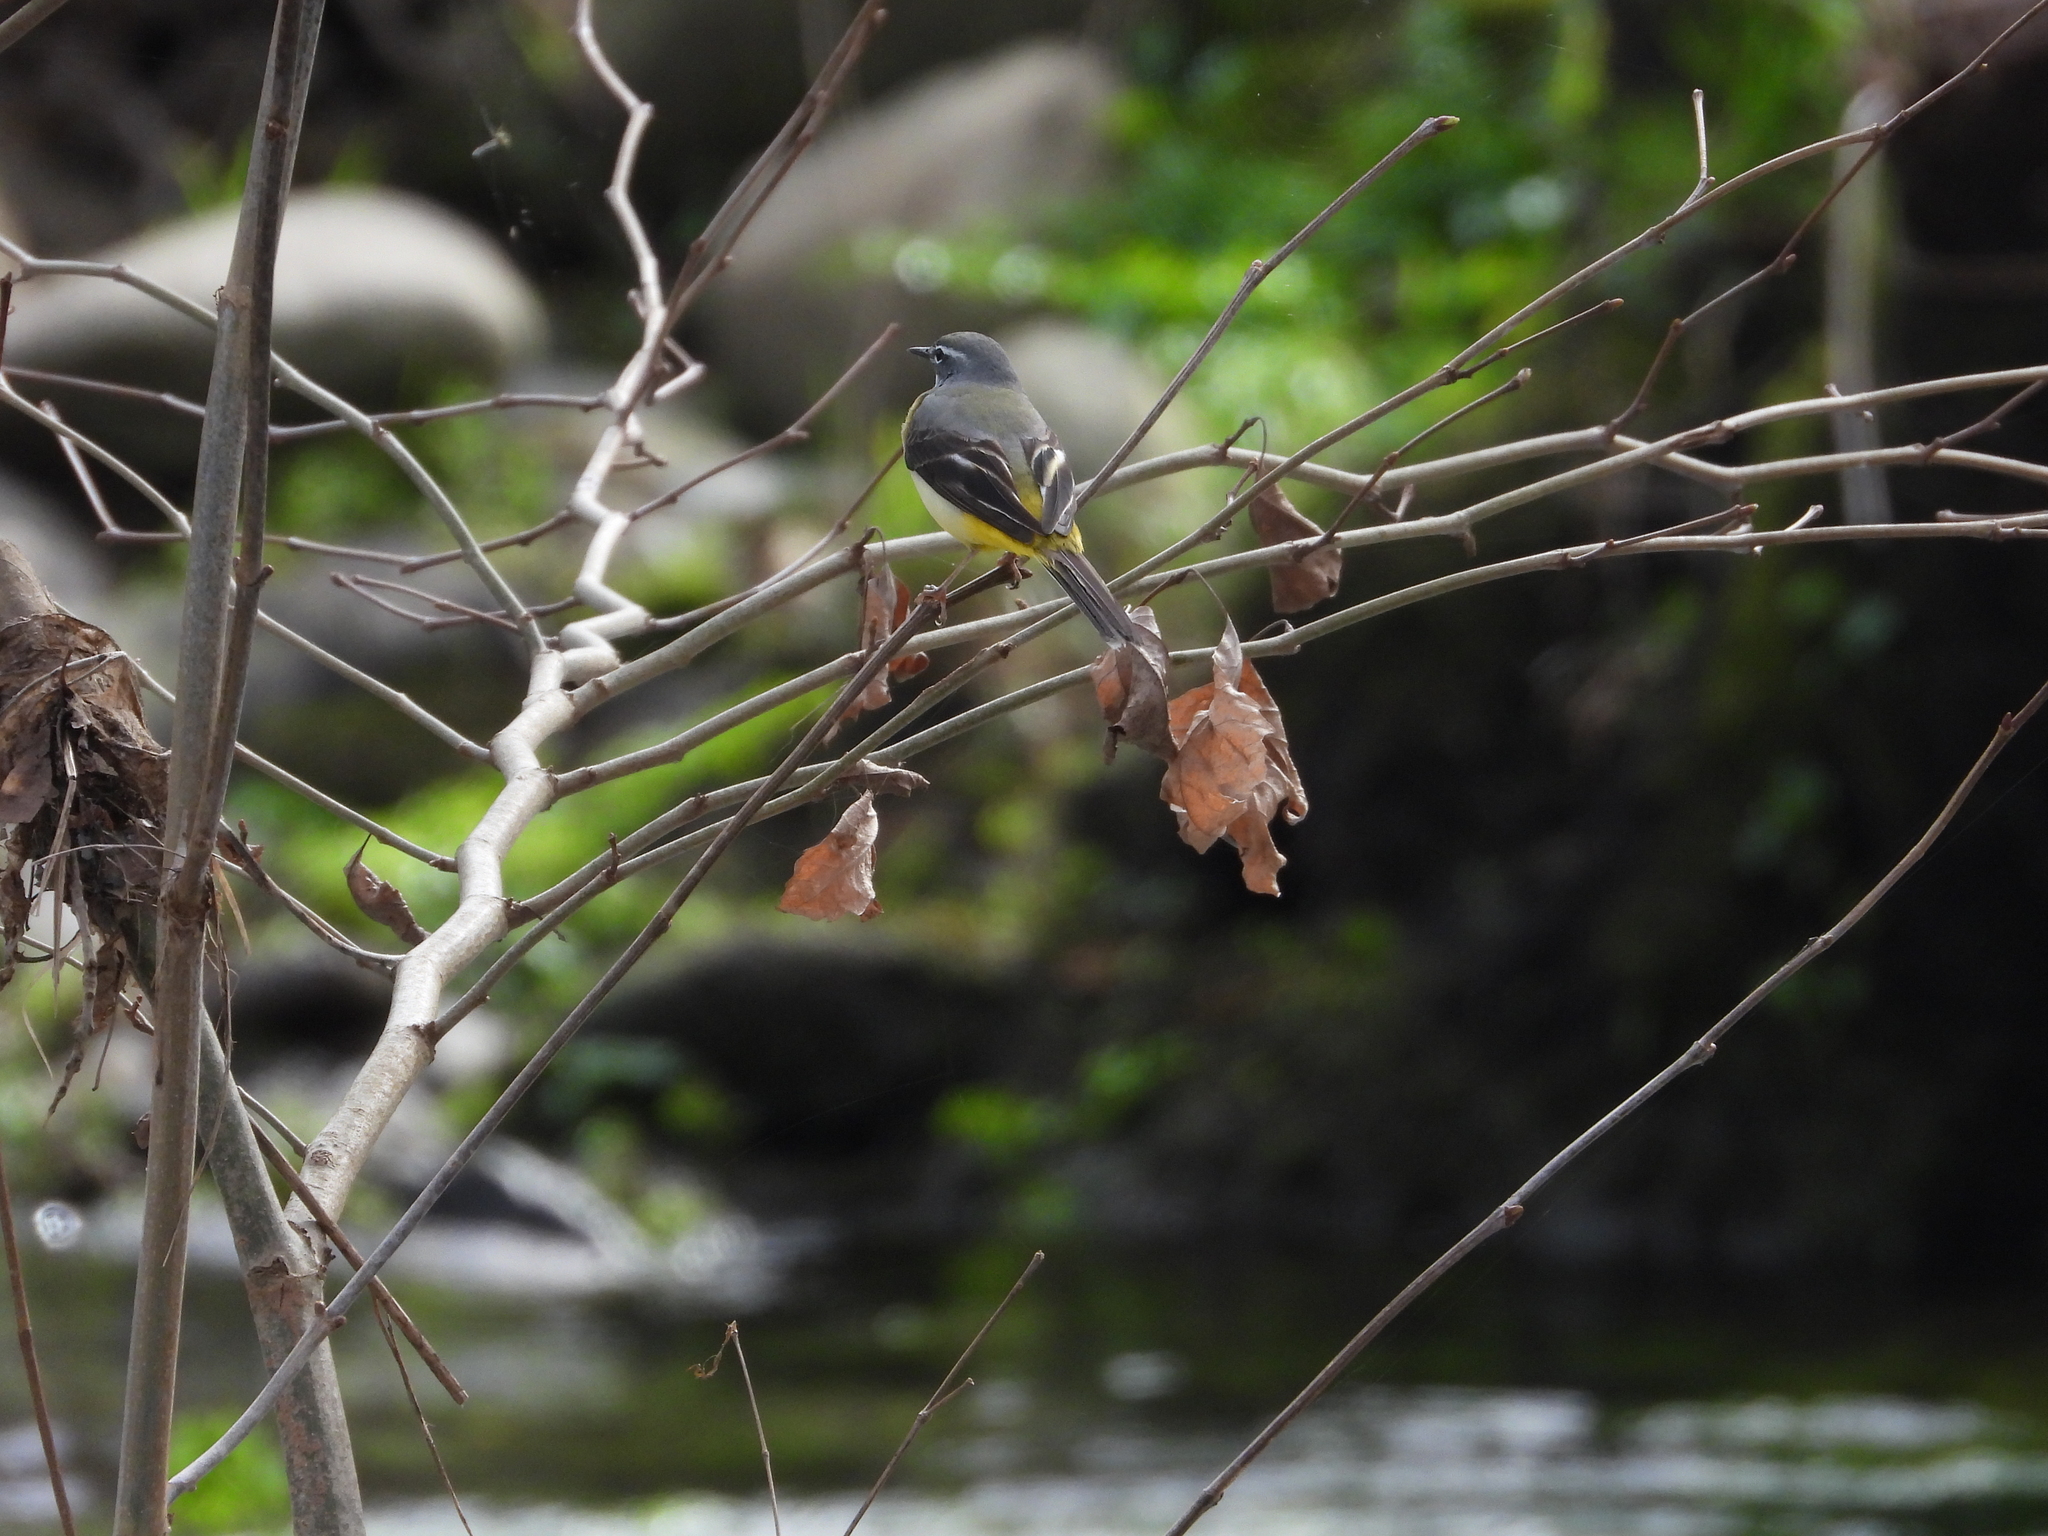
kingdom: Animalia
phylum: Chordata
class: Aves
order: Passeriformes
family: Motacillidae
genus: Motacilla
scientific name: Motacilla cinerea
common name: Grey wagtail
